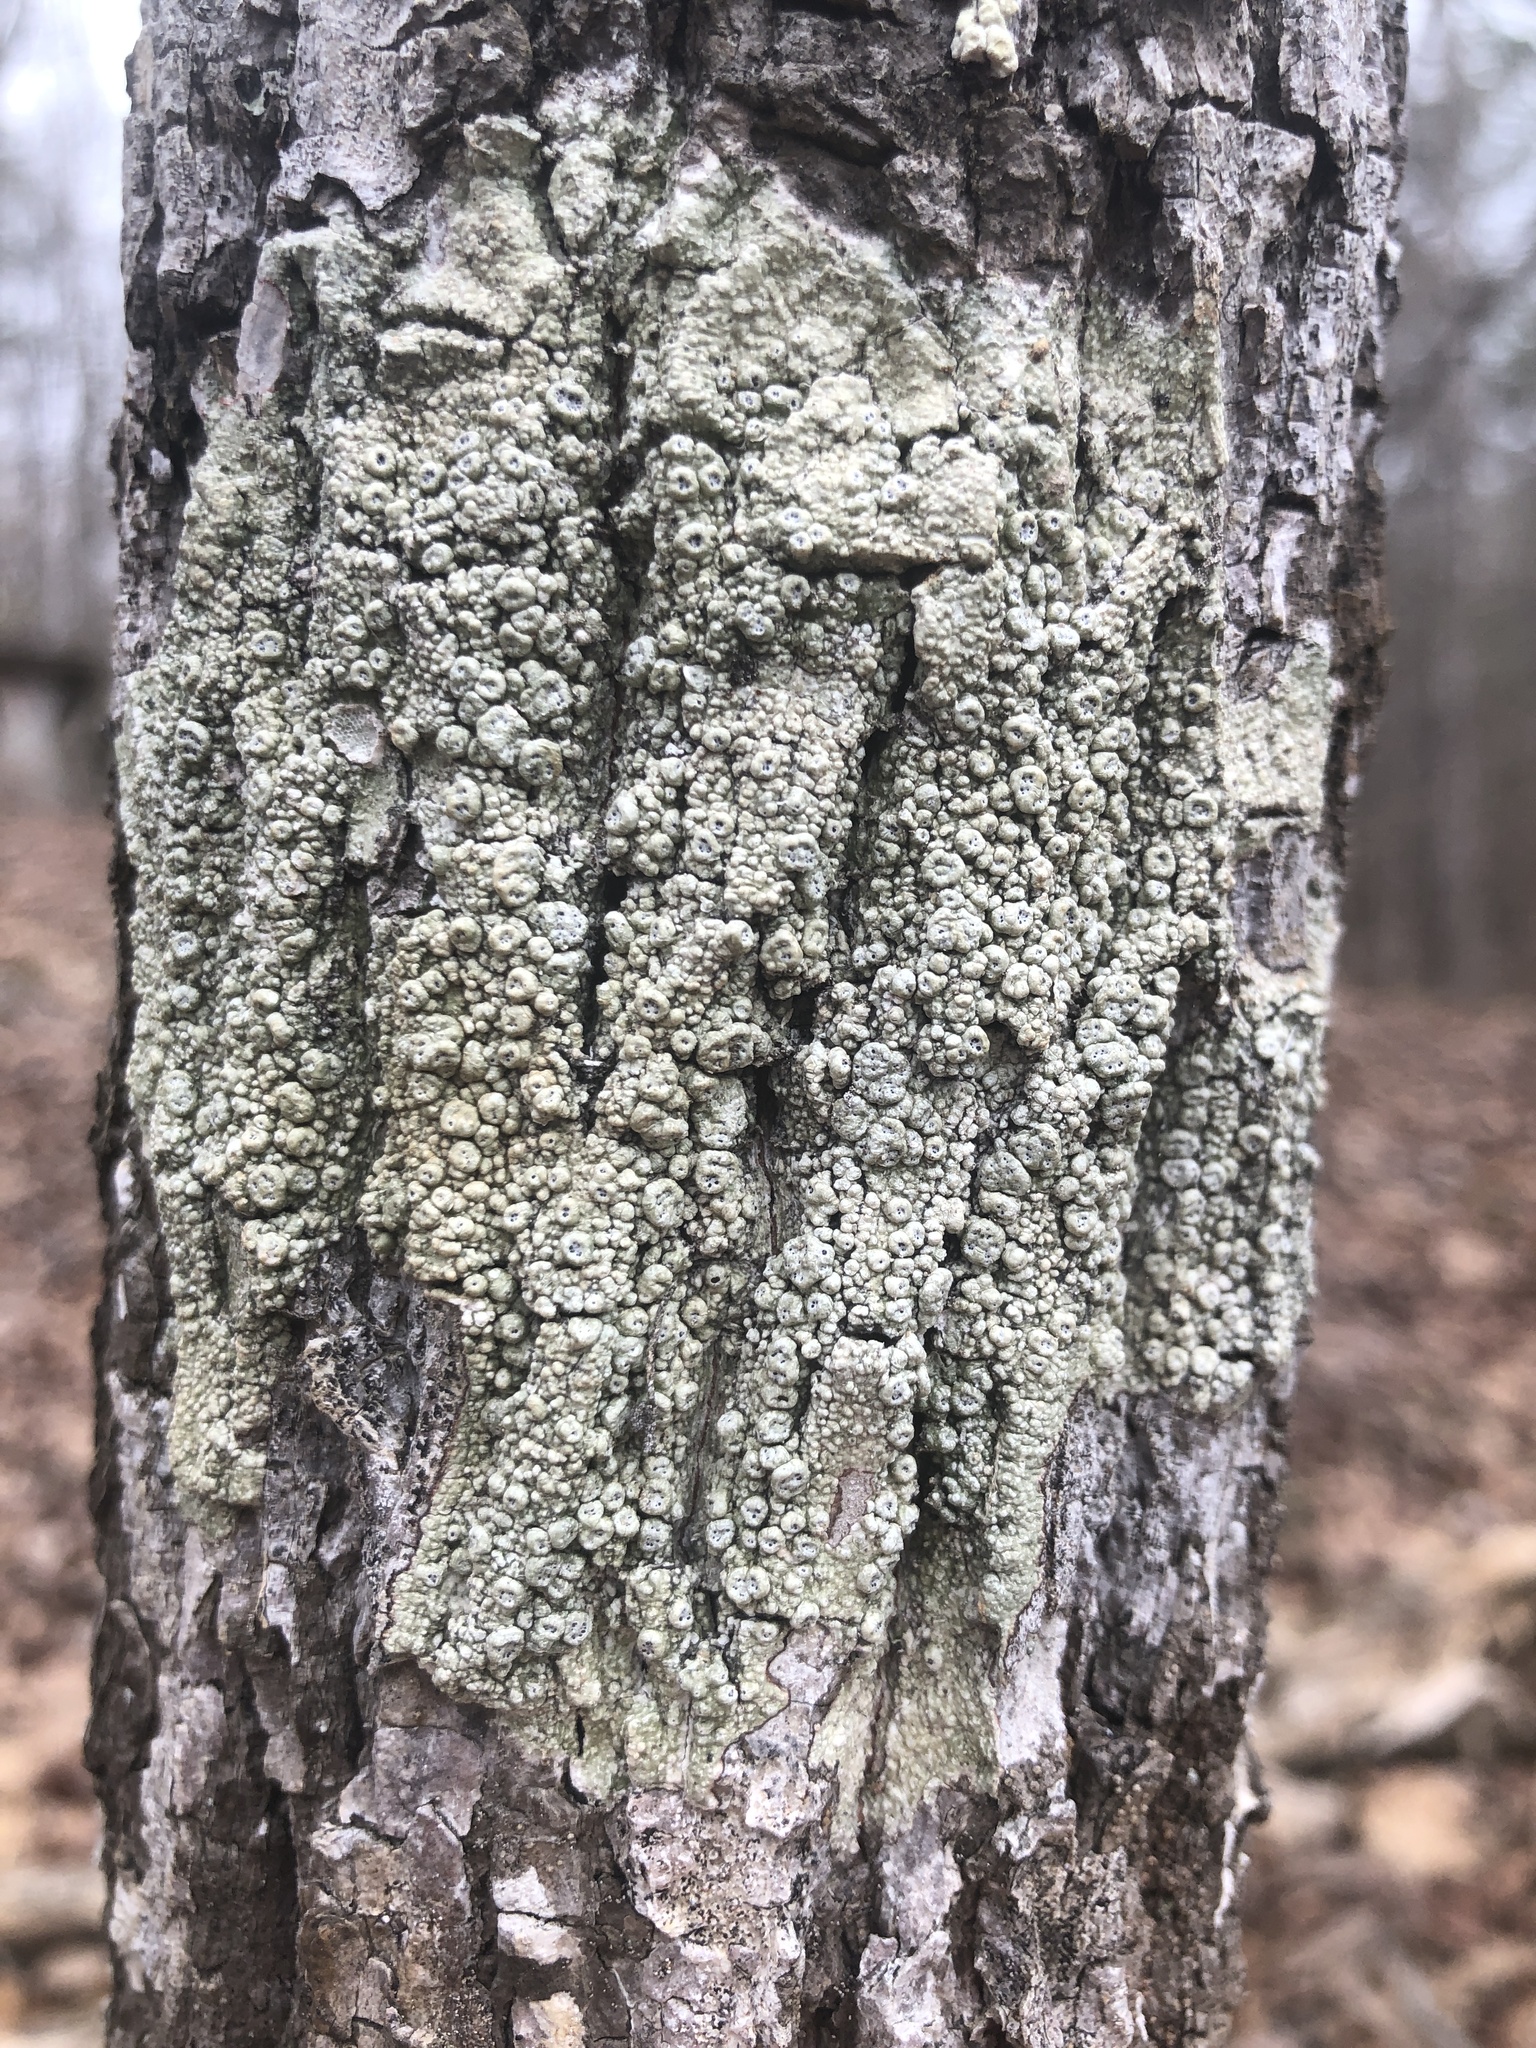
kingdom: Fungi
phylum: Ascomycota
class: Lecanoromycetes
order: Pertusariales
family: Pertusariaceae
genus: Pertusaria
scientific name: Pertusaria sinusmexicani
